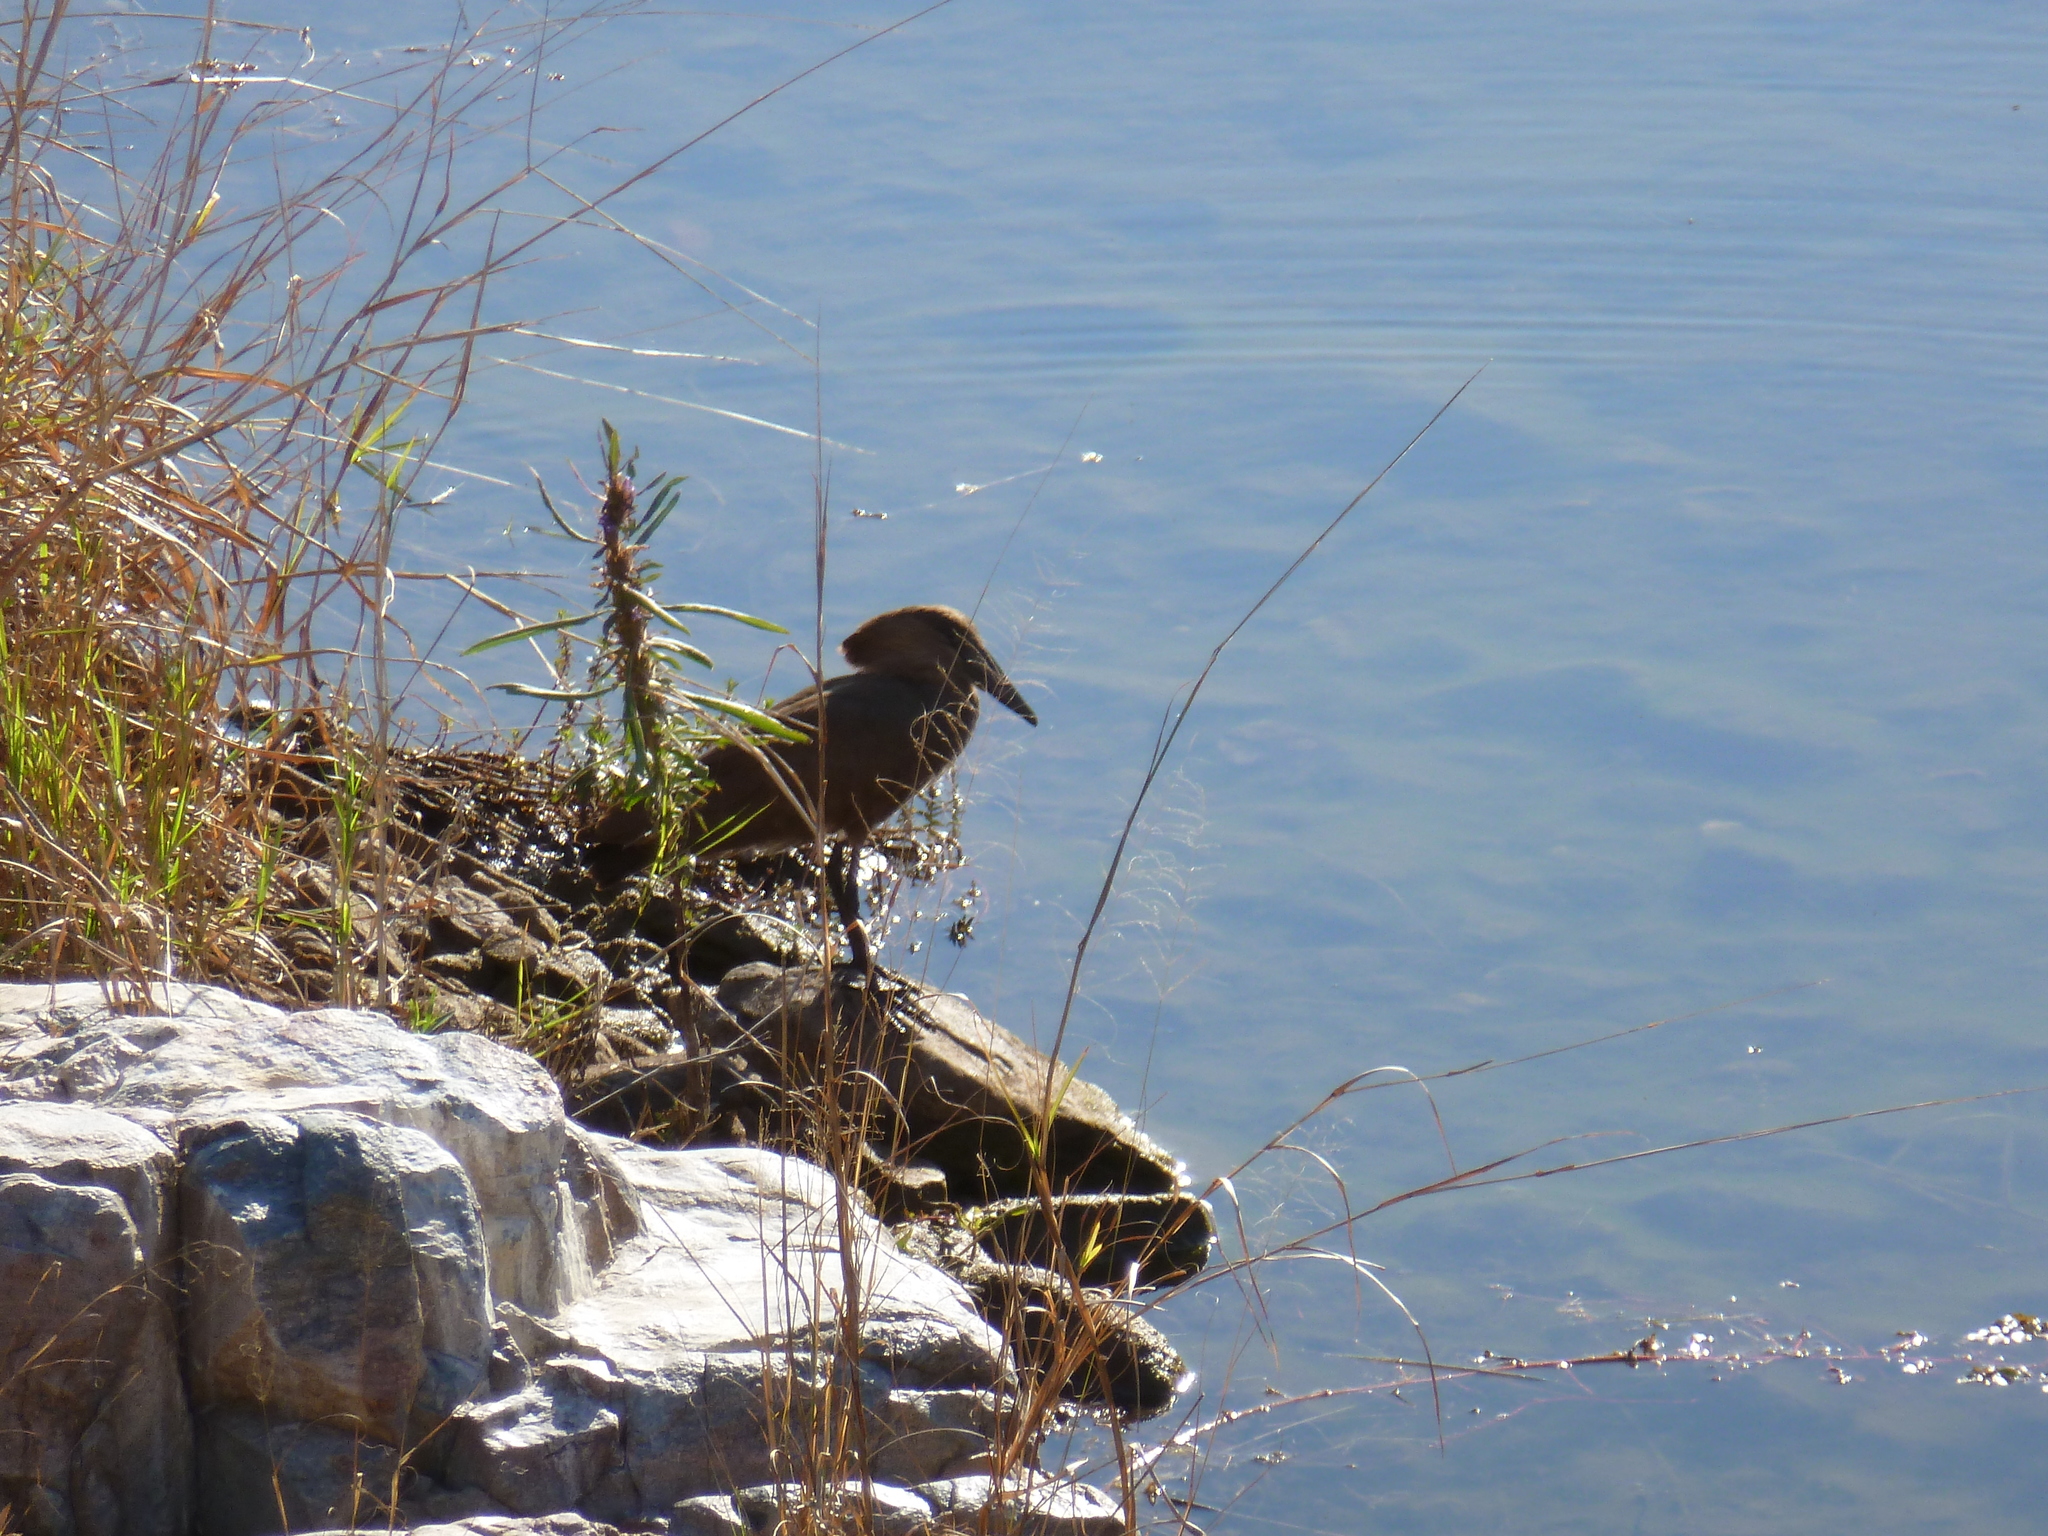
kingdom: Animalia
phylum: Chordata
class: Aves
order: Pelecaniformes
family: Scopidae
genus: Scopus
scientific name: Scopus umbretta
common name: Hamerkop
